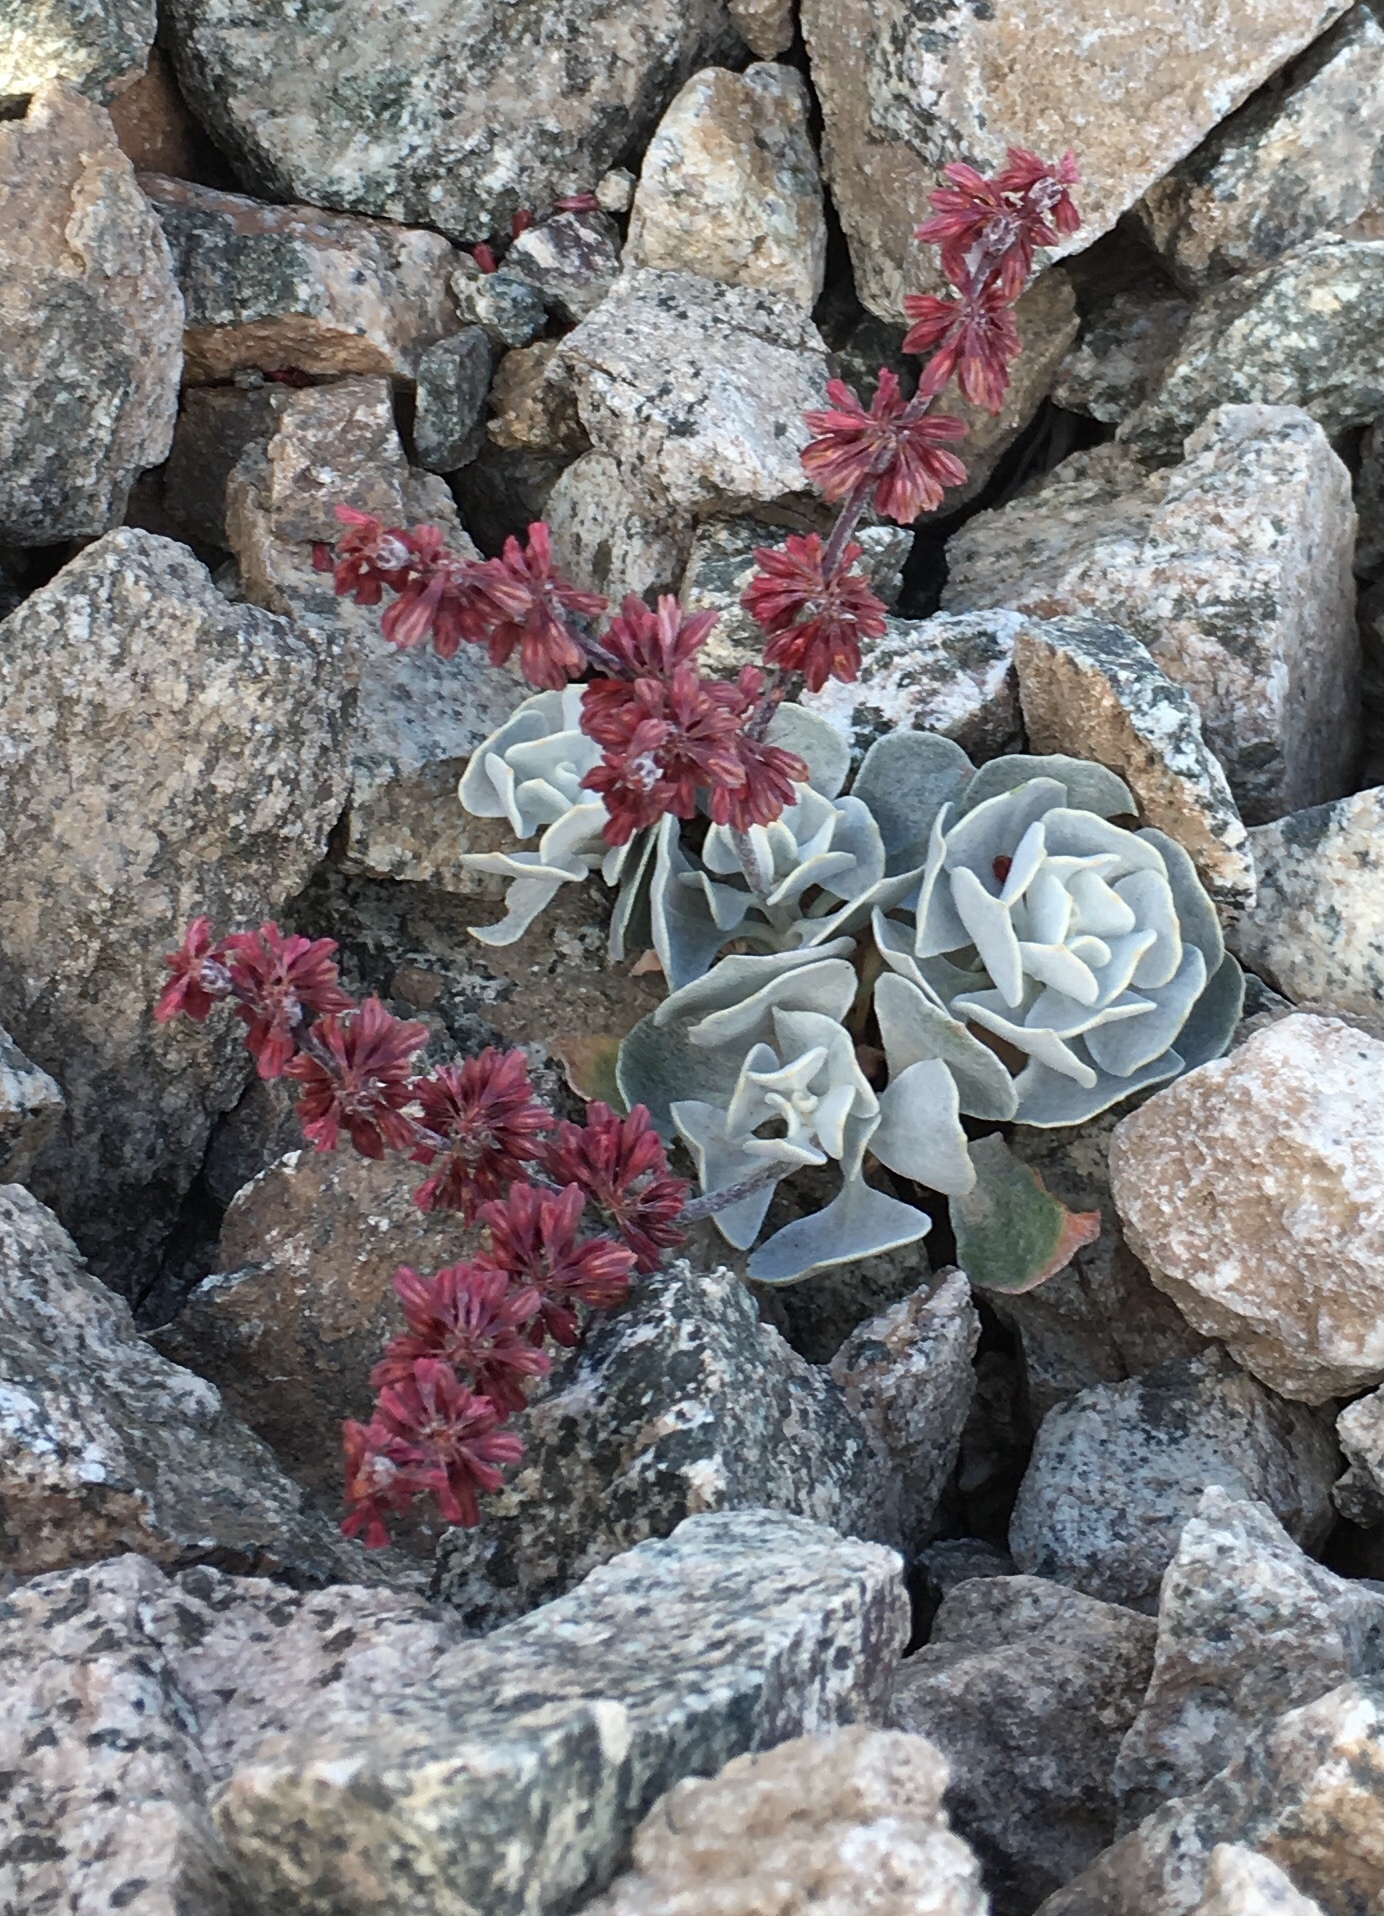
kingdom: Plantae
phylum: Tracheophyta
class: Magnoliopsida
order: Caryophyllales
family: Polygonaceae
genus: Eriogonum
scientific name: Eriogonum saxatile
